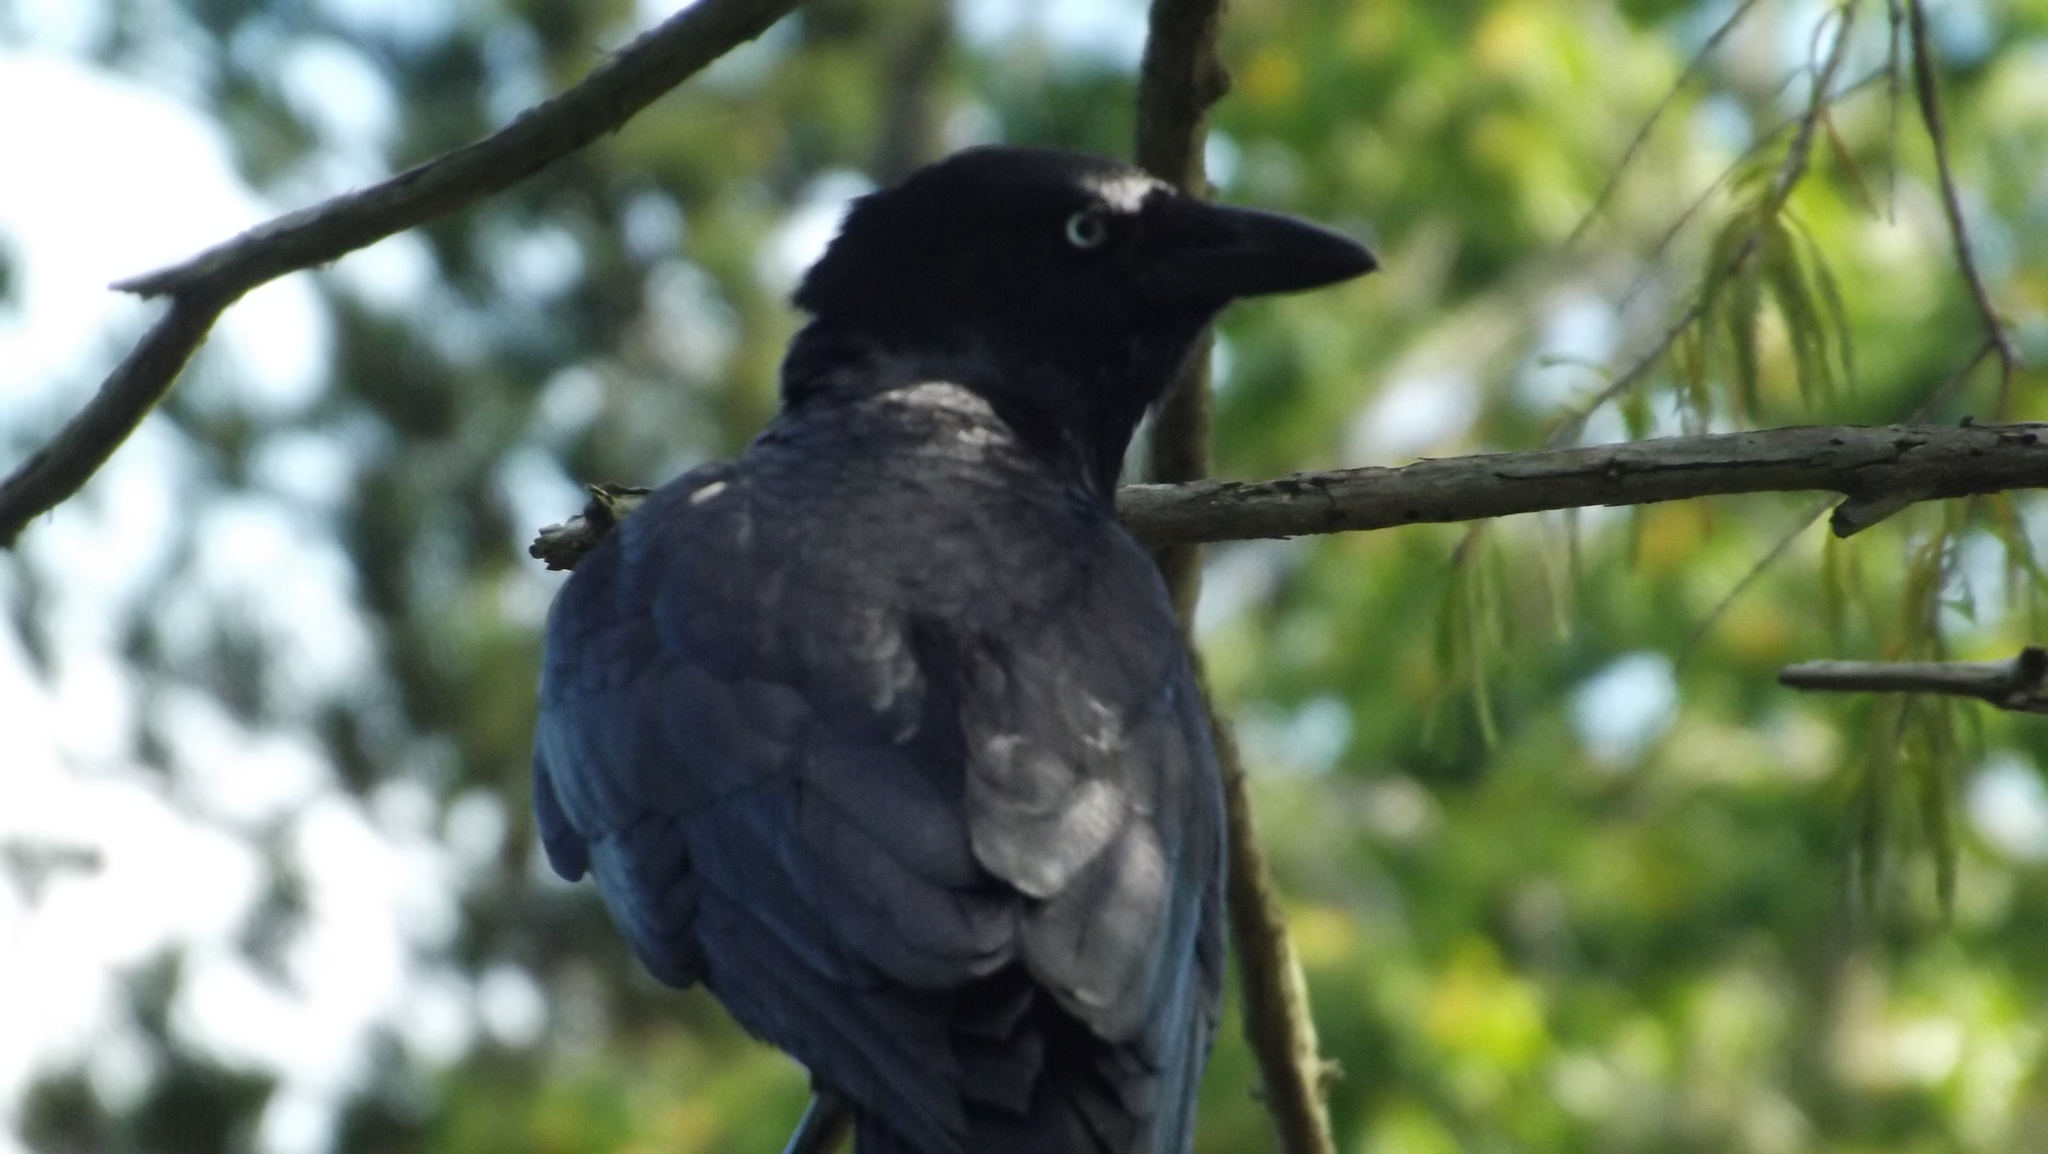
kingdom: Animalia
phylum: Chordata
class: Aves
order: Passeriformes
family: Corvidae
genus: Corvus
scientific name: Corvus orru
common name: Torresian crow
